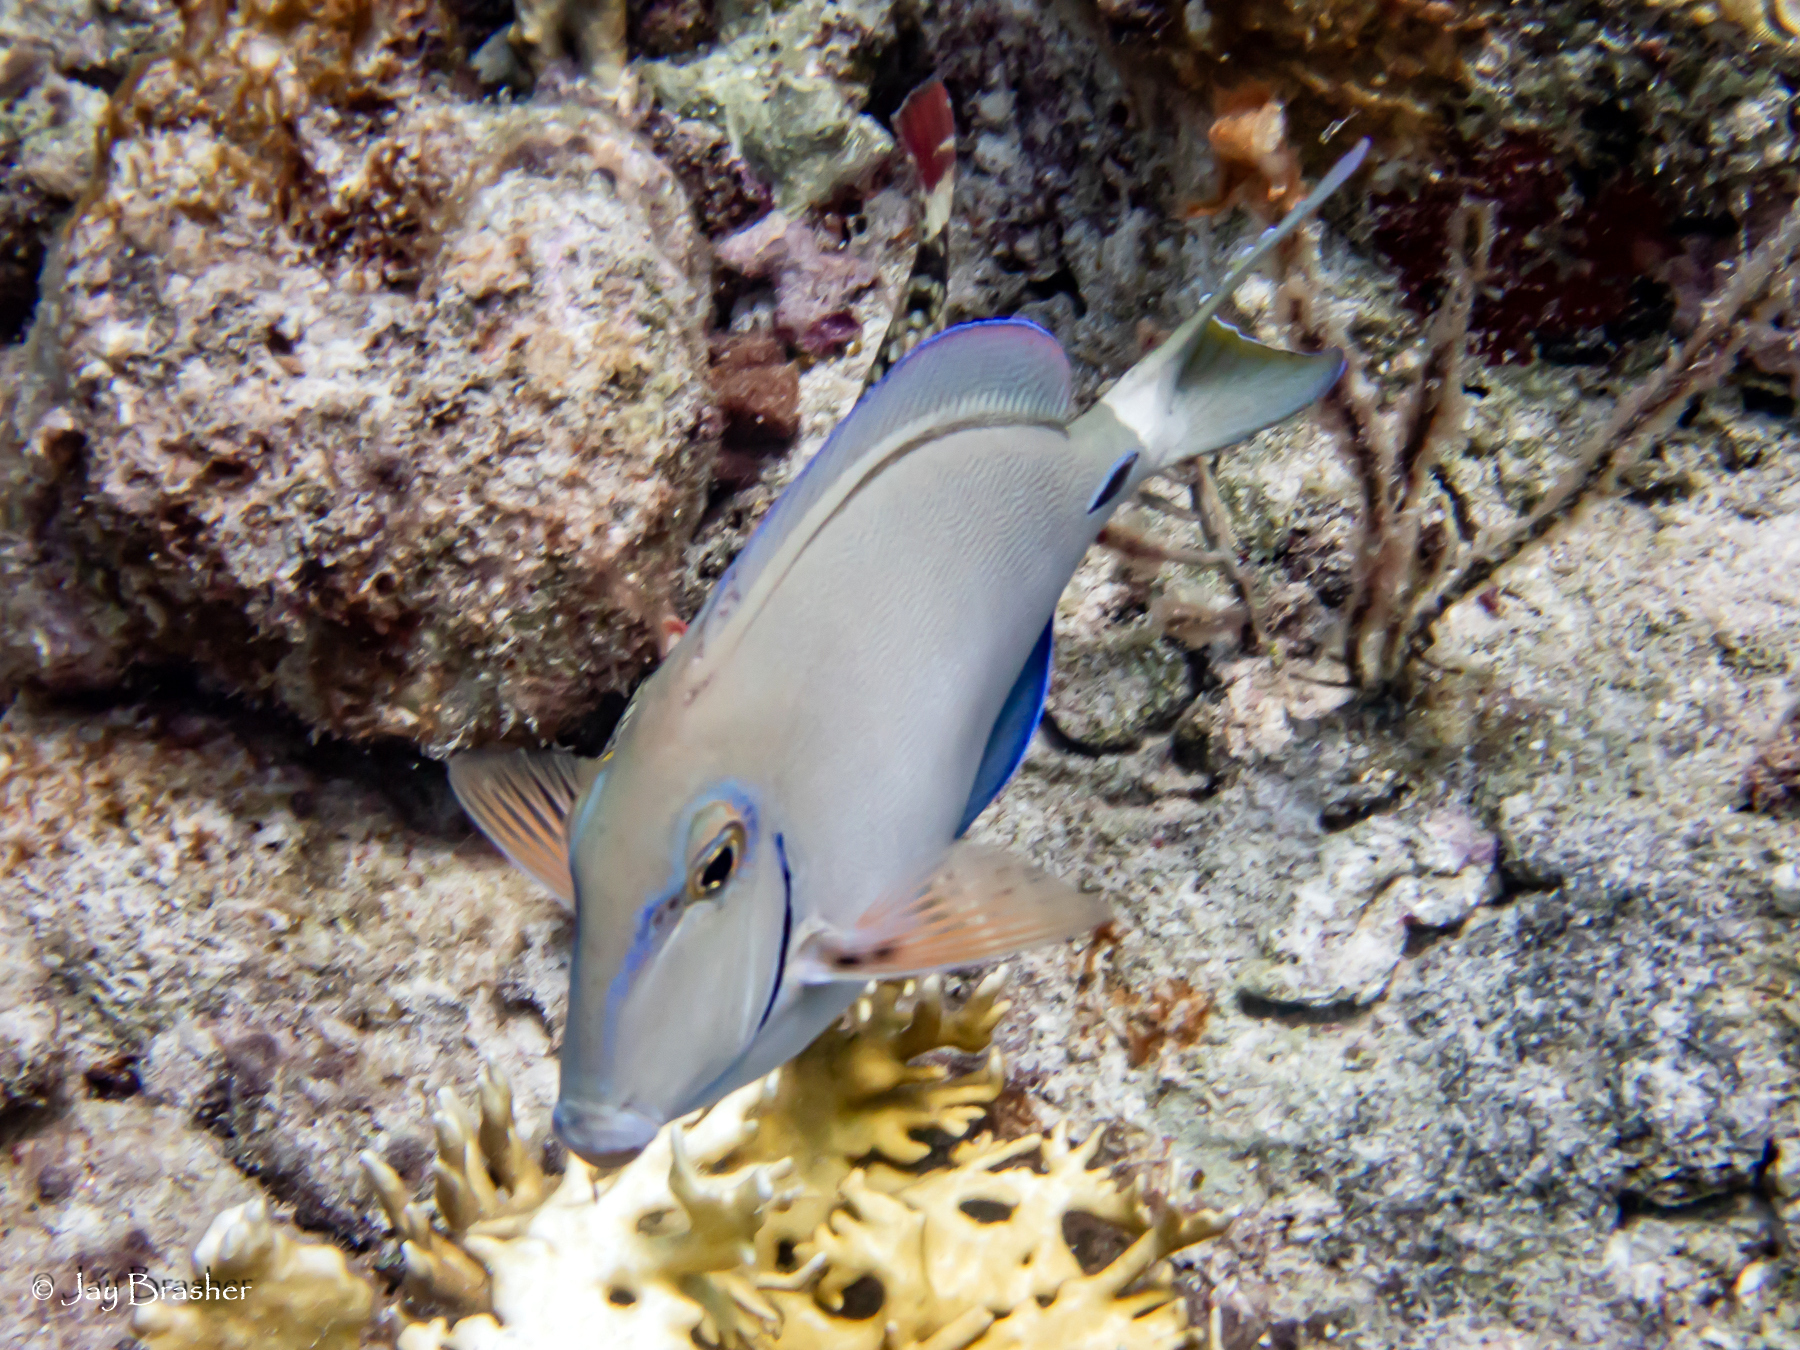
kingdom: Animalia
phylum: Chordata
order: Perciformes
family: Acanthuridae
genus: Acanthurus
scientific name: Acanthurus bahianus
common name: Ocean surgeon
